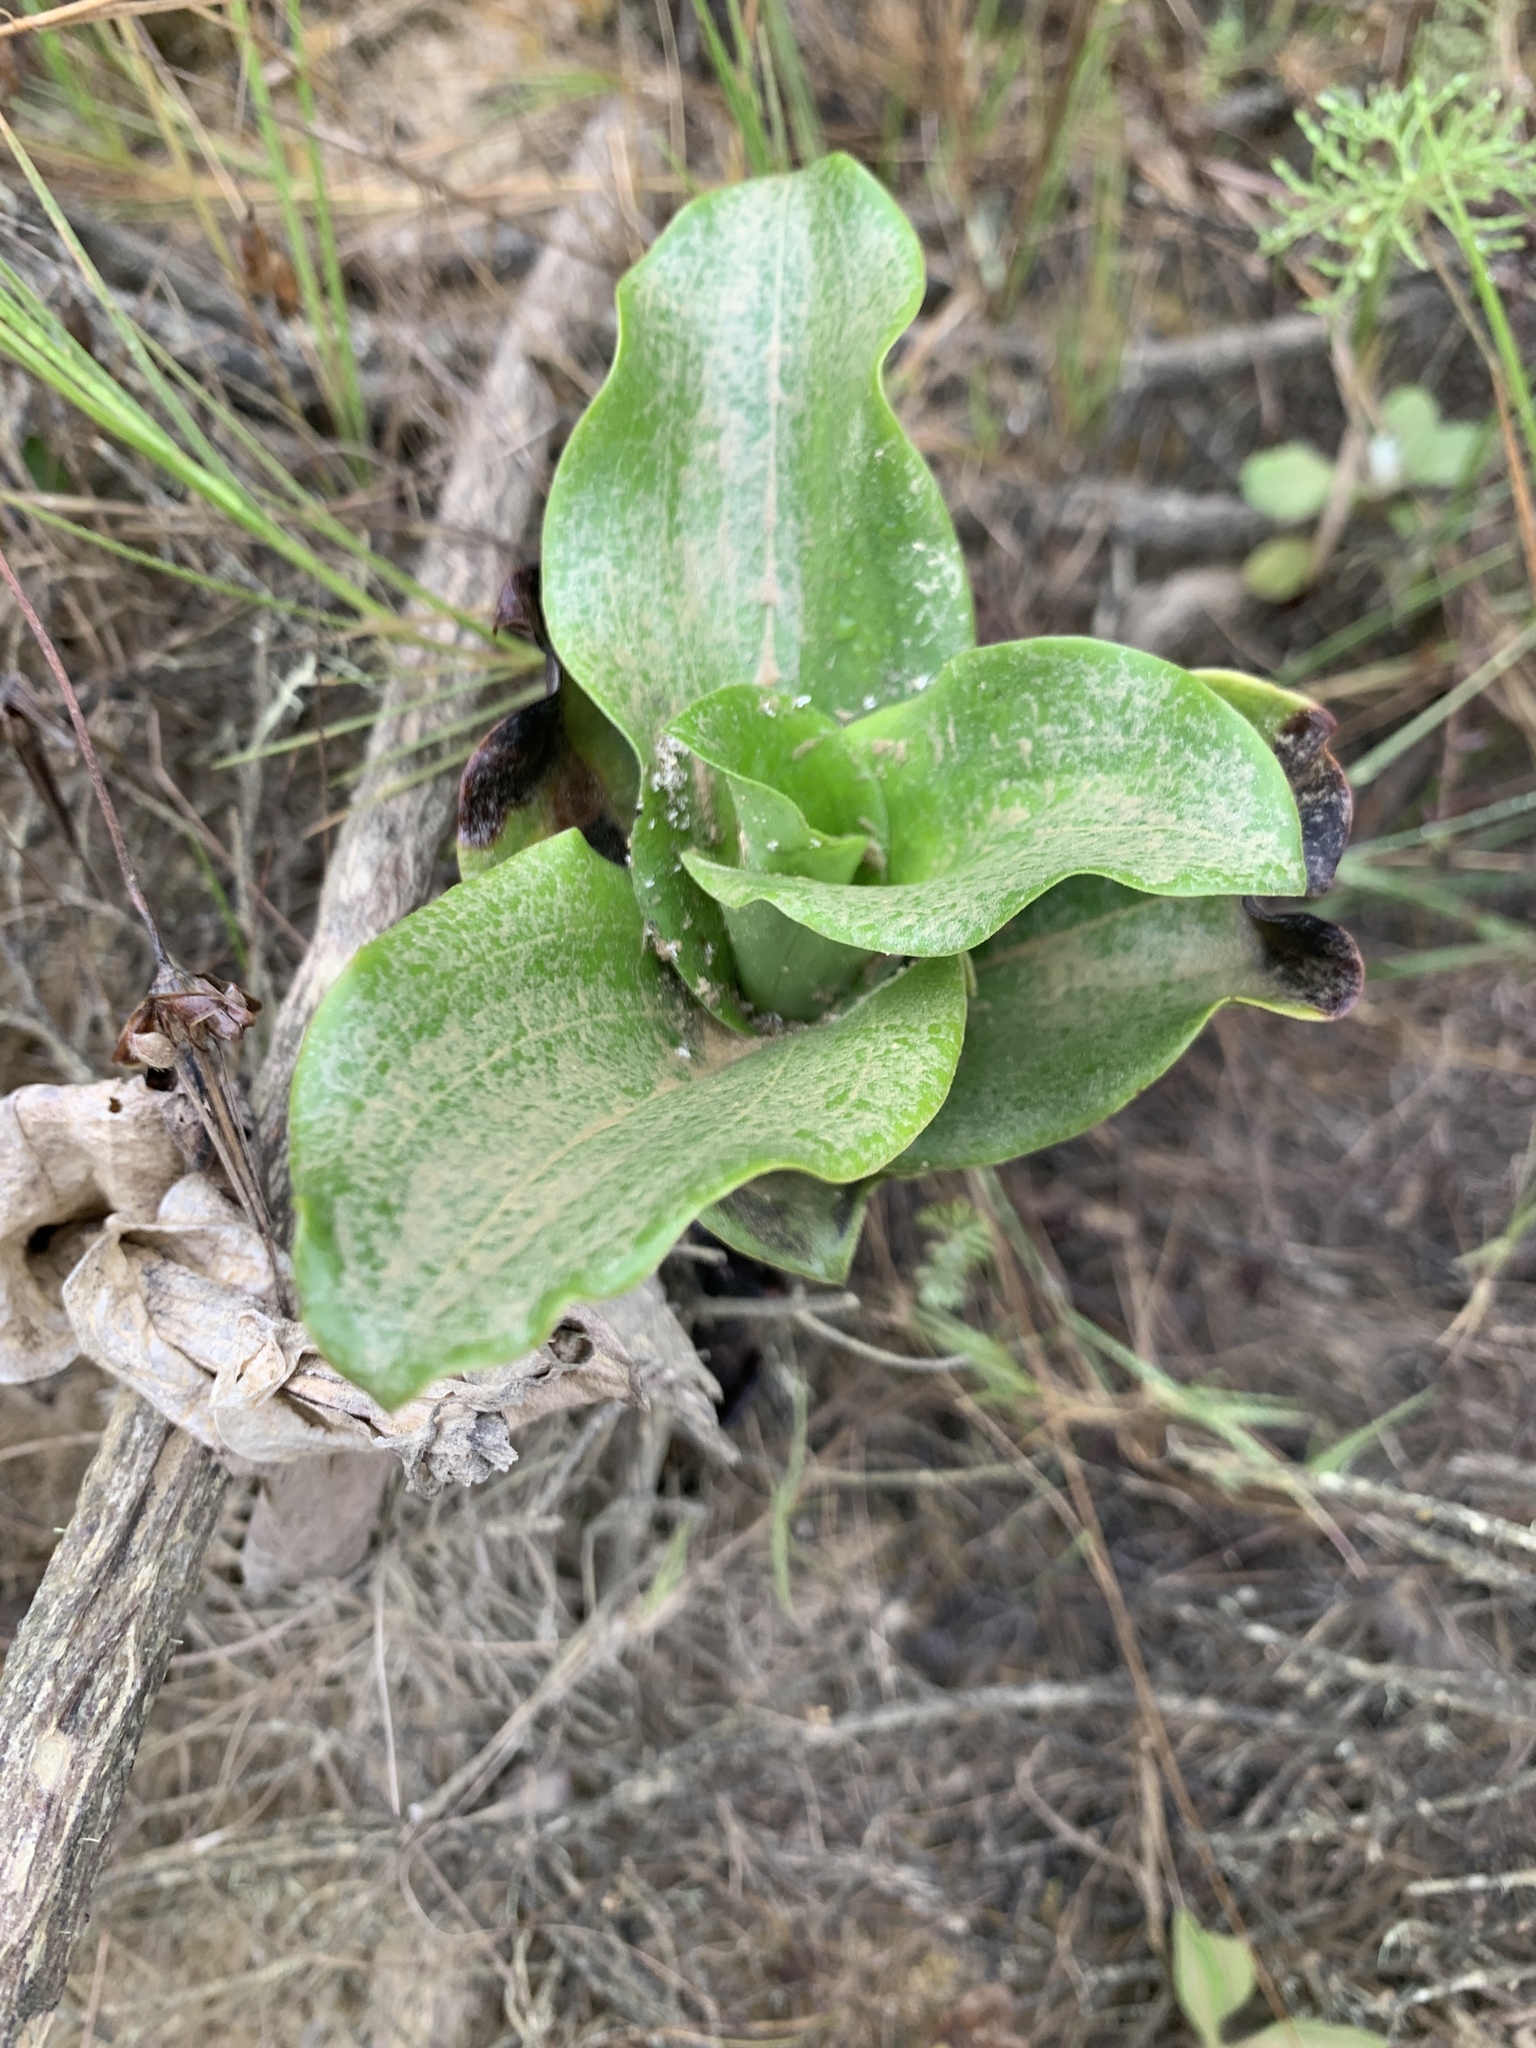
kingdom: Plantae
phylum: Tracheophyta
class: Liliopsida
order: Asparagales
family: Orchidaceae
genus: Bonatea
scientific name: Bonatea speciosa
